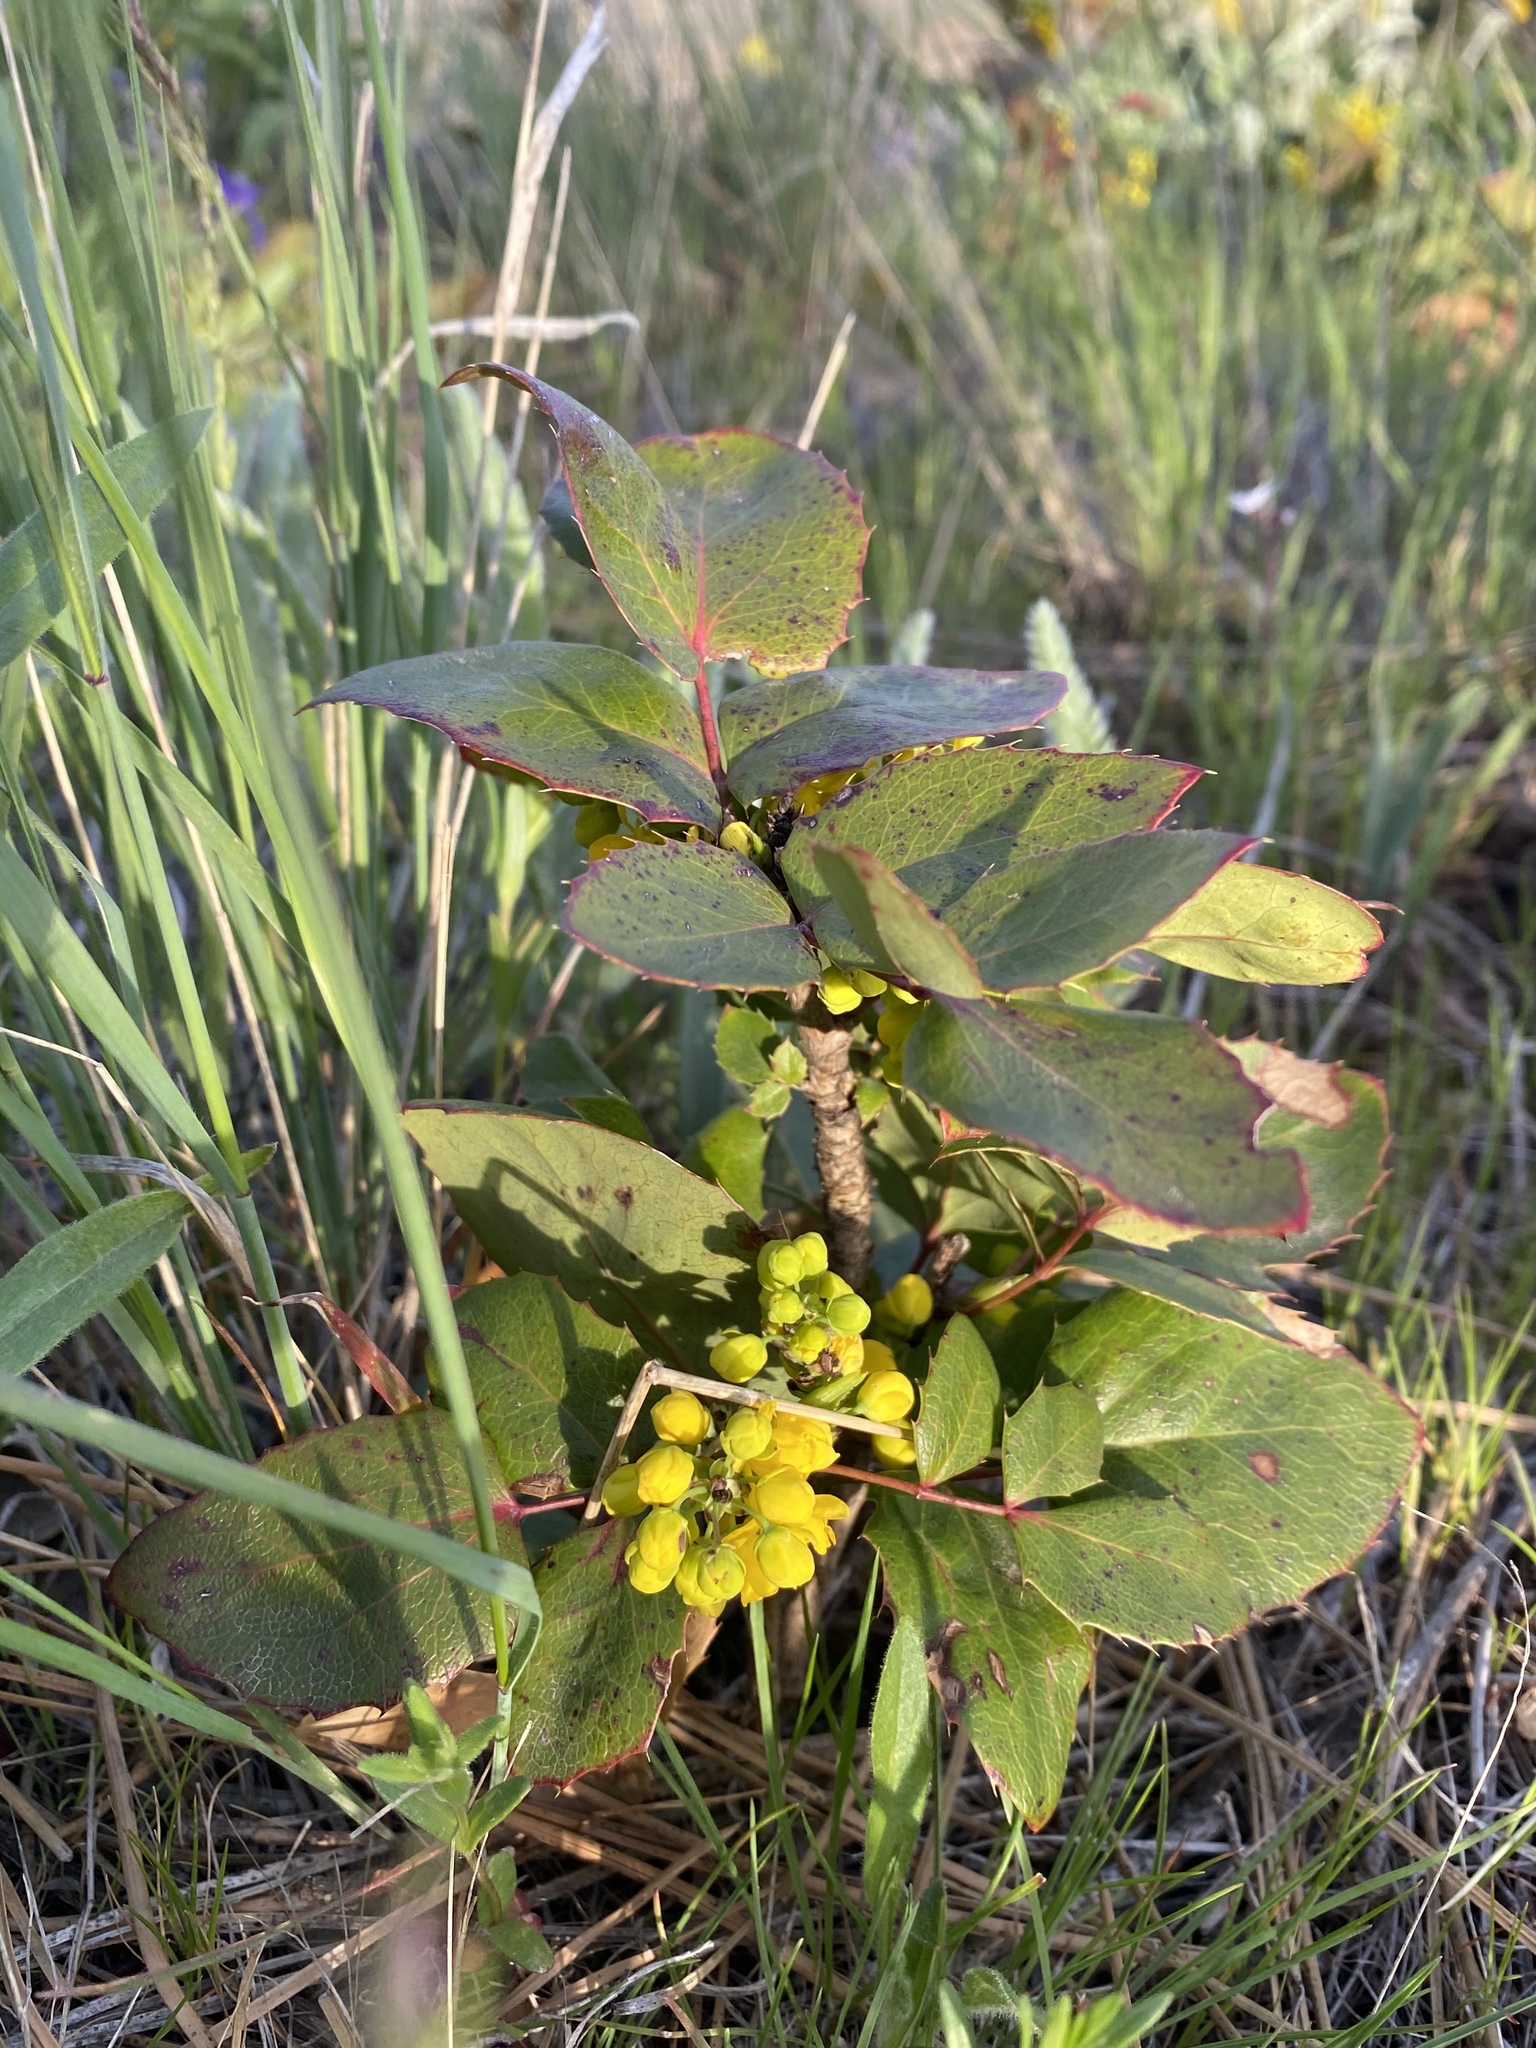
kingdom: Plantae
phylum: Tracheophyta
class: Magnoliopsida
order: Ranunculales
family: Berberidaceae
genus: Mahonia
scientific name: Mahonia repens
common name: Creeping oregon-grape
